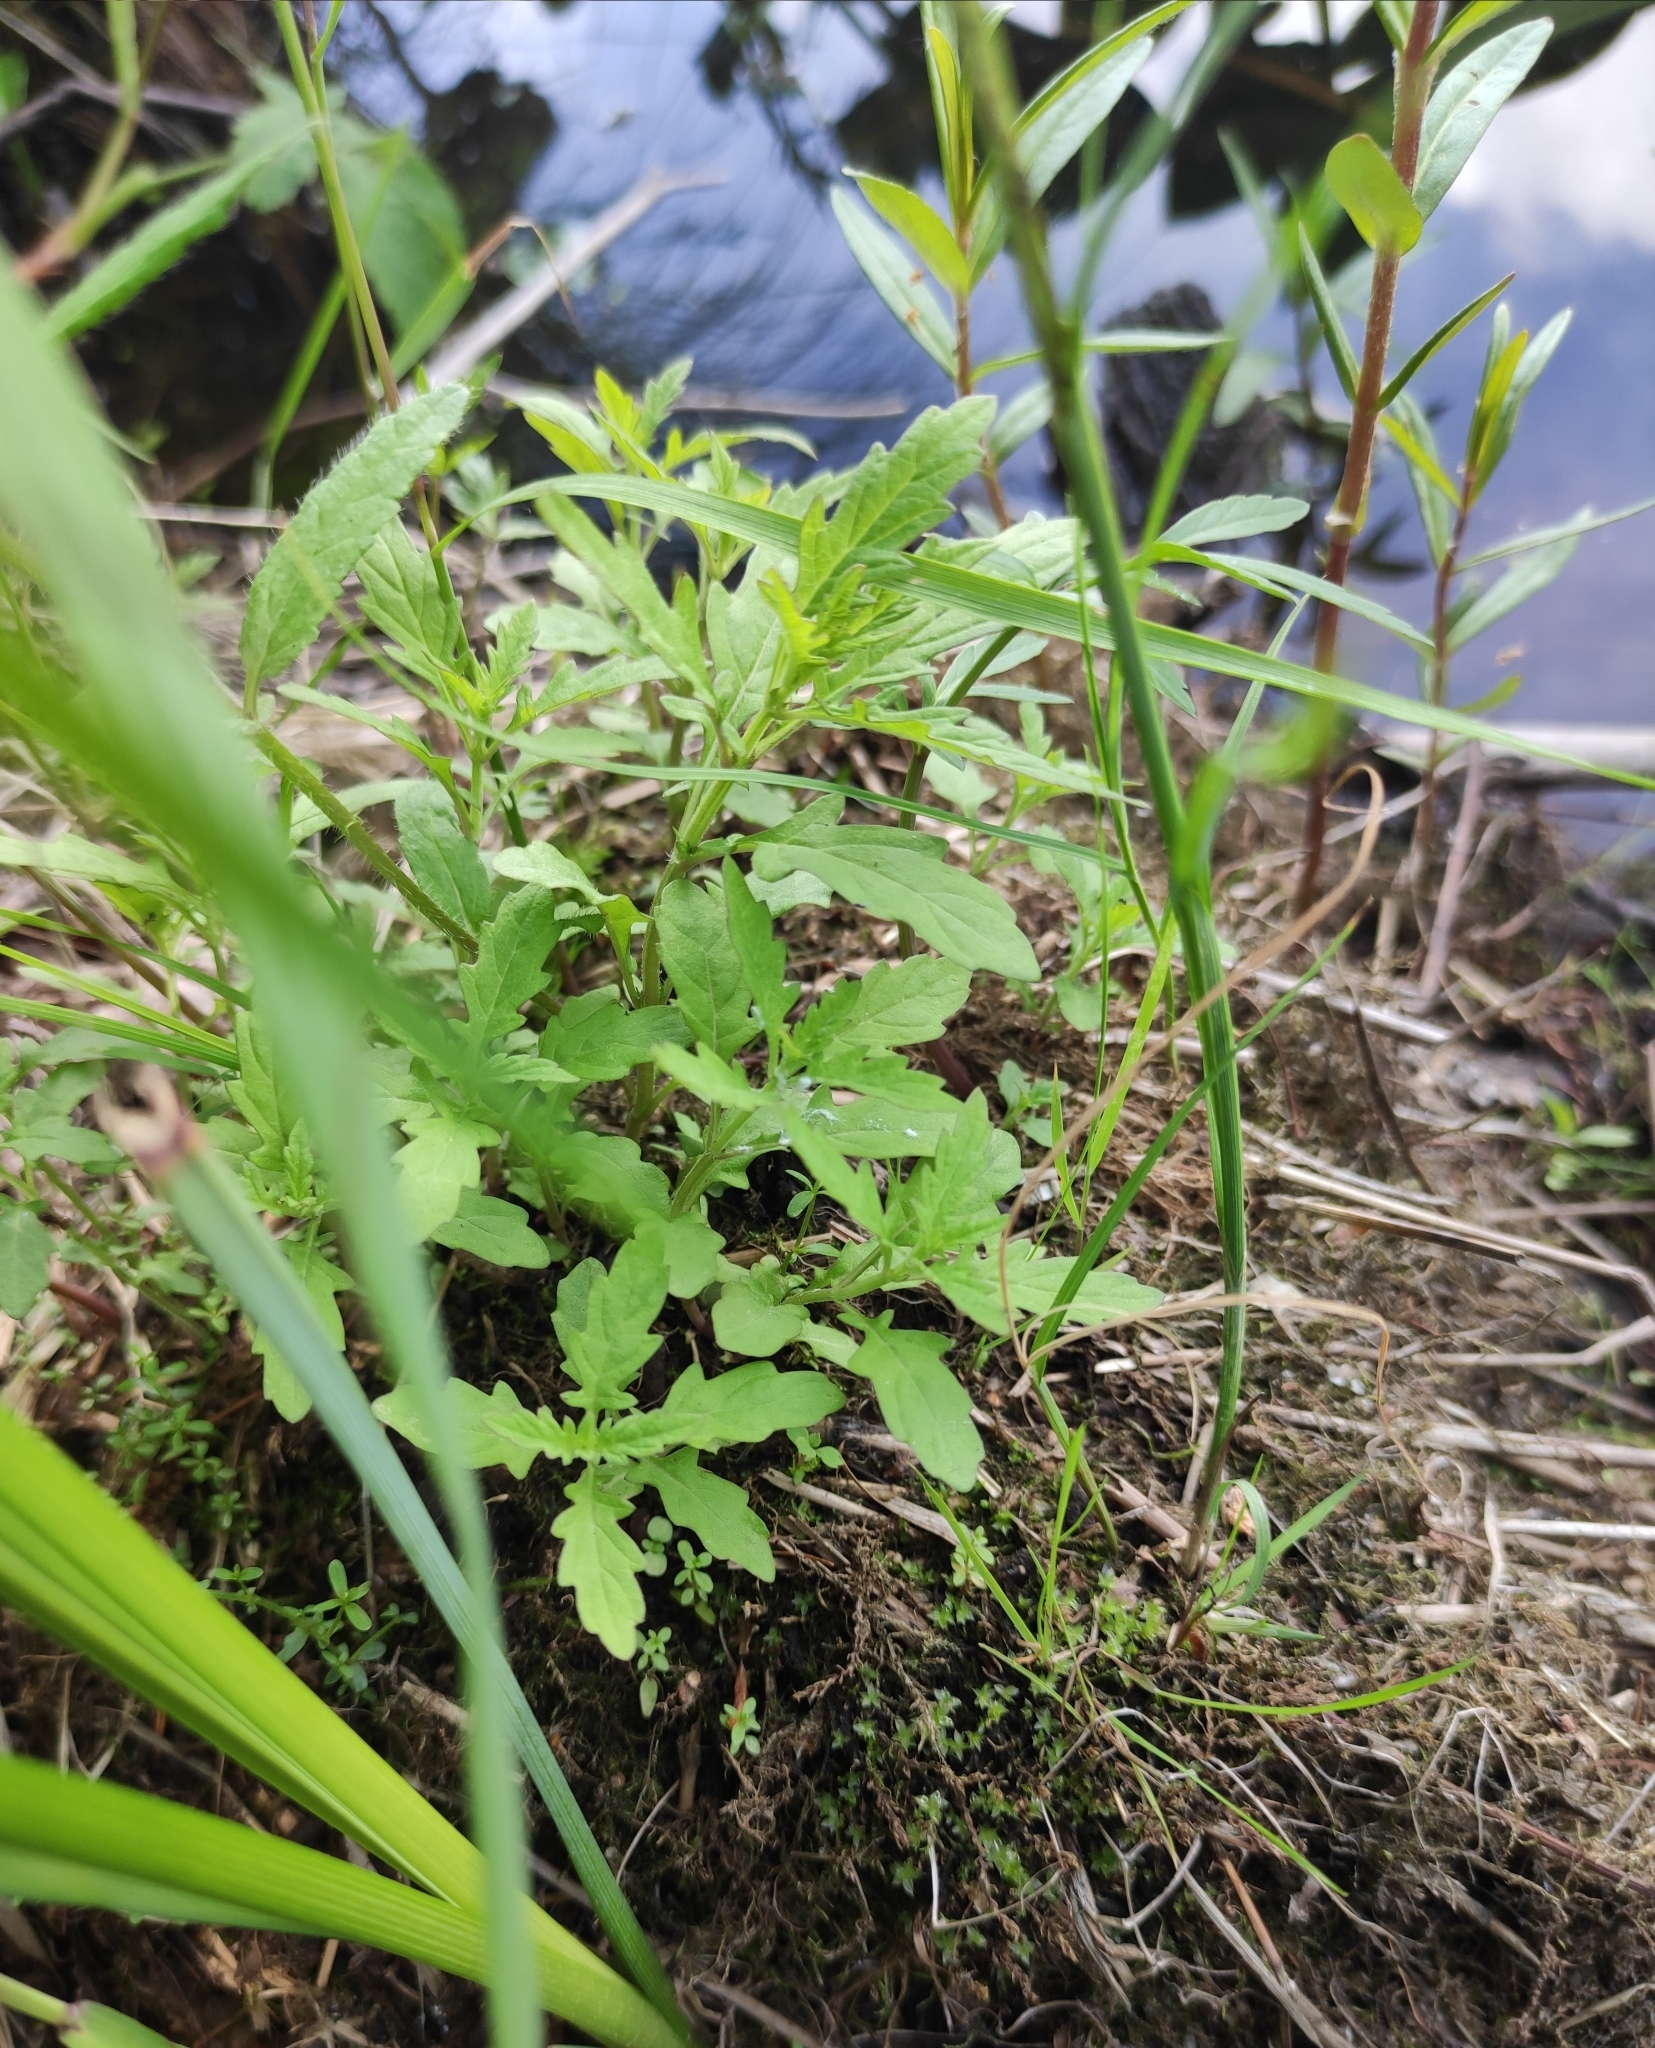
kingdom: Plantae
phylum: Tracheophyta
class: Magnoliopsida
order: Lamiales
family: Lamiaceae
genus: Lycopus
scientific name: Lycopus europaeus
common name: European bugleweed
